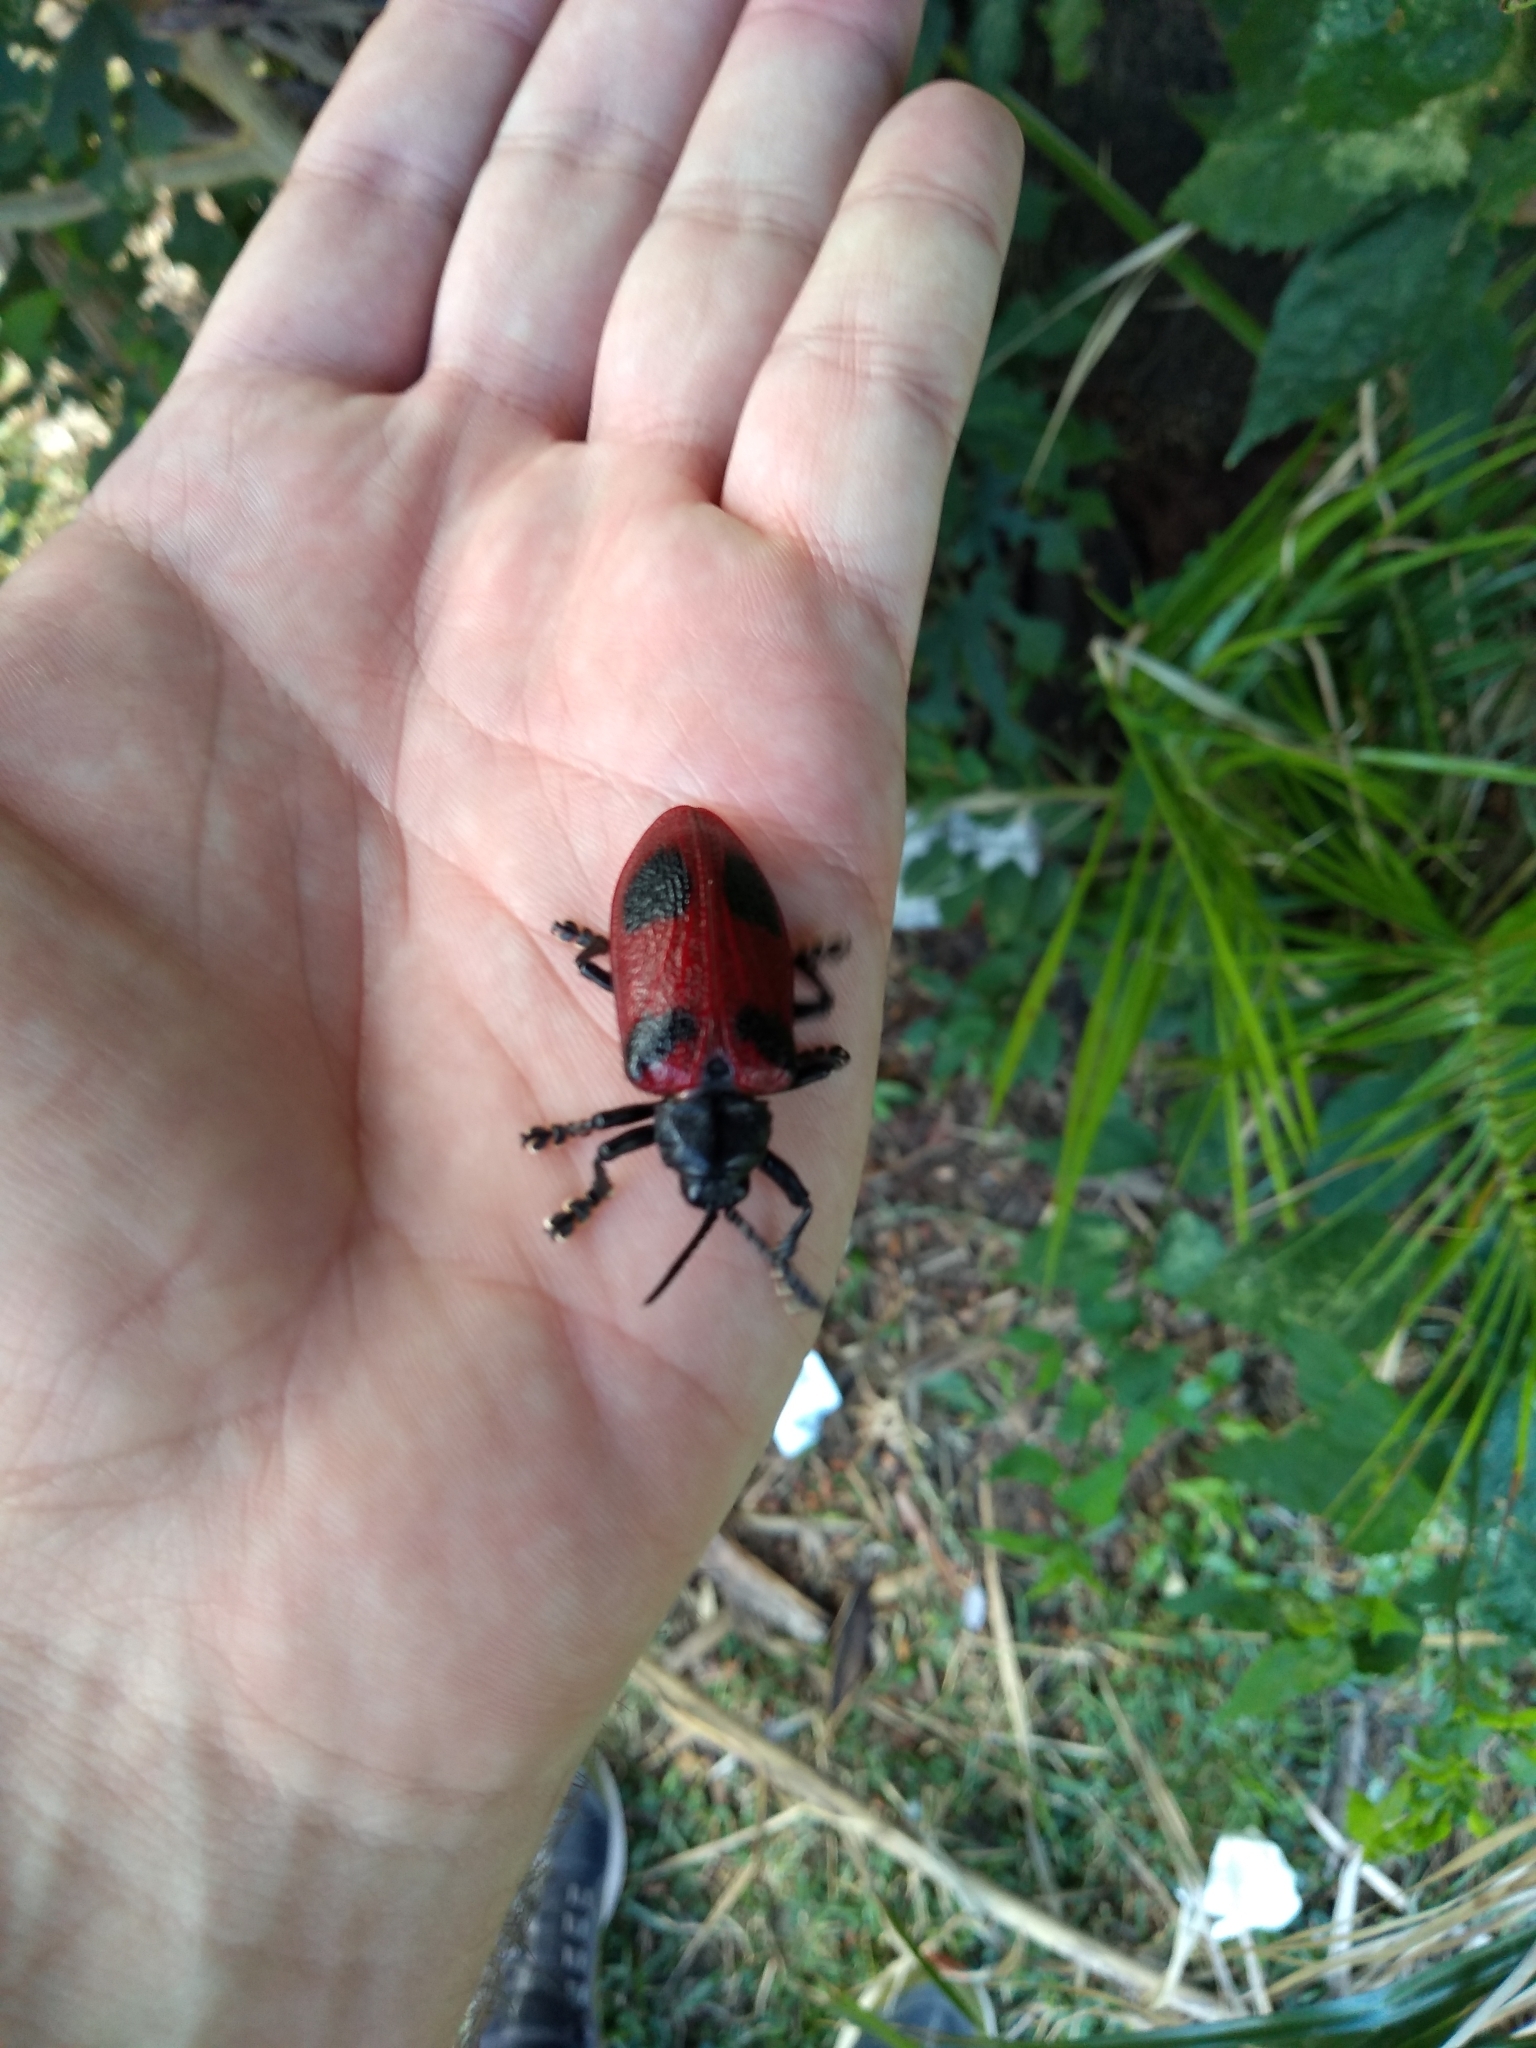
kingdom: Animalia
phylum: Arthropoda
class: Insecta
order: Coleoptera
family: Chrysomelidae
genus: Coraliomela
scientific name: Coraliomela quadrimaculata
